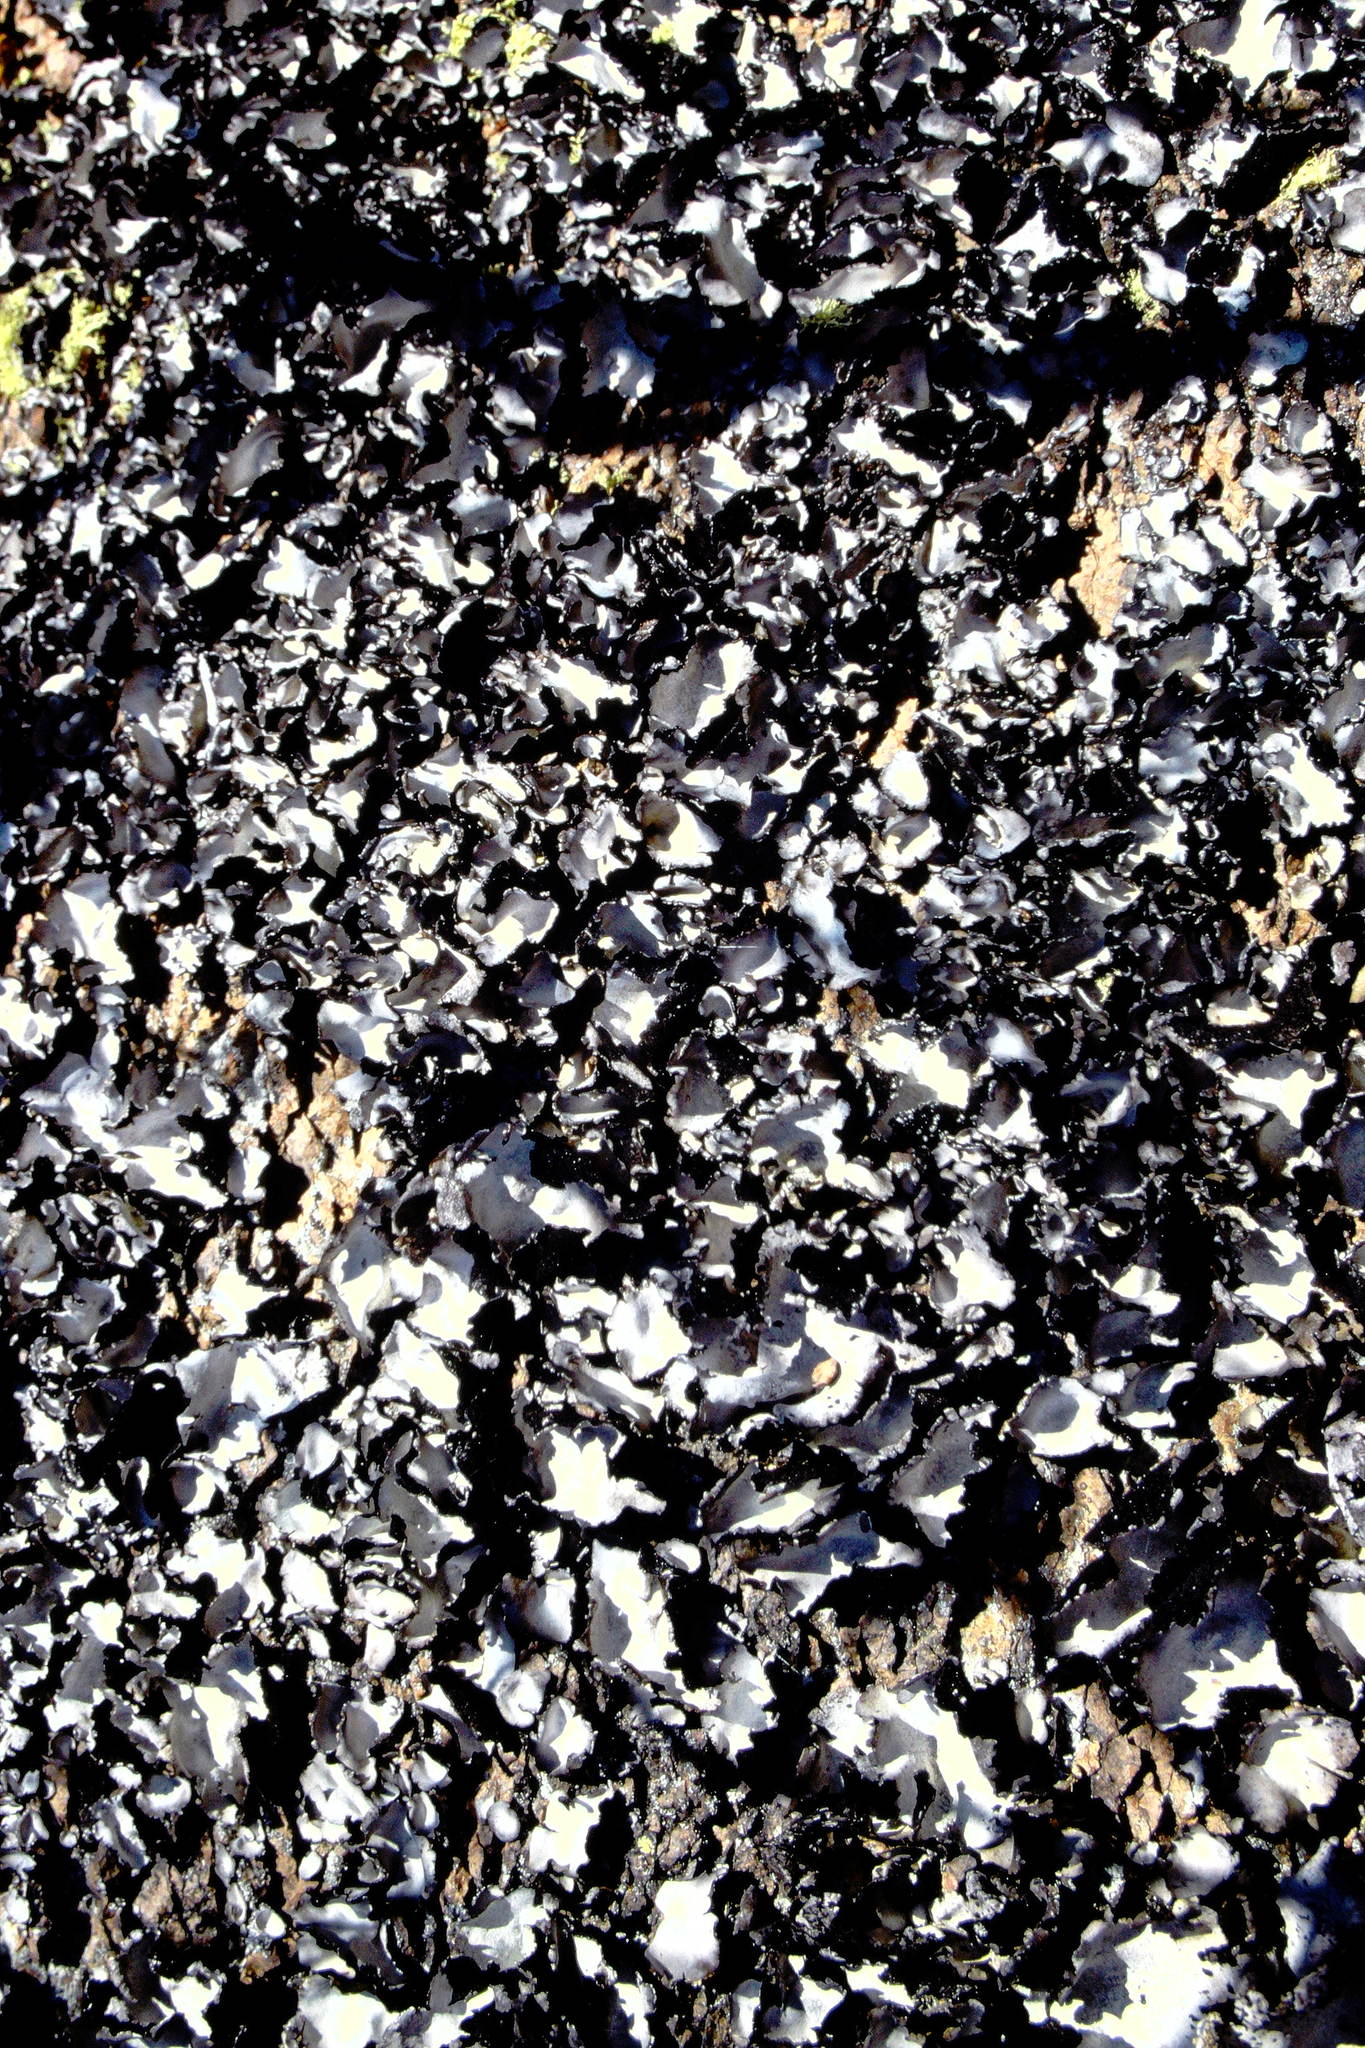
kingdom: Fungi
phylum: Ascomycota
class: Lecanoromycetes
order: Umbilicariales
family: Umbilicariaceae
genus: Umbilicaria
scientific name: Umbilicaria americana
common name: Frosted rock tripe
